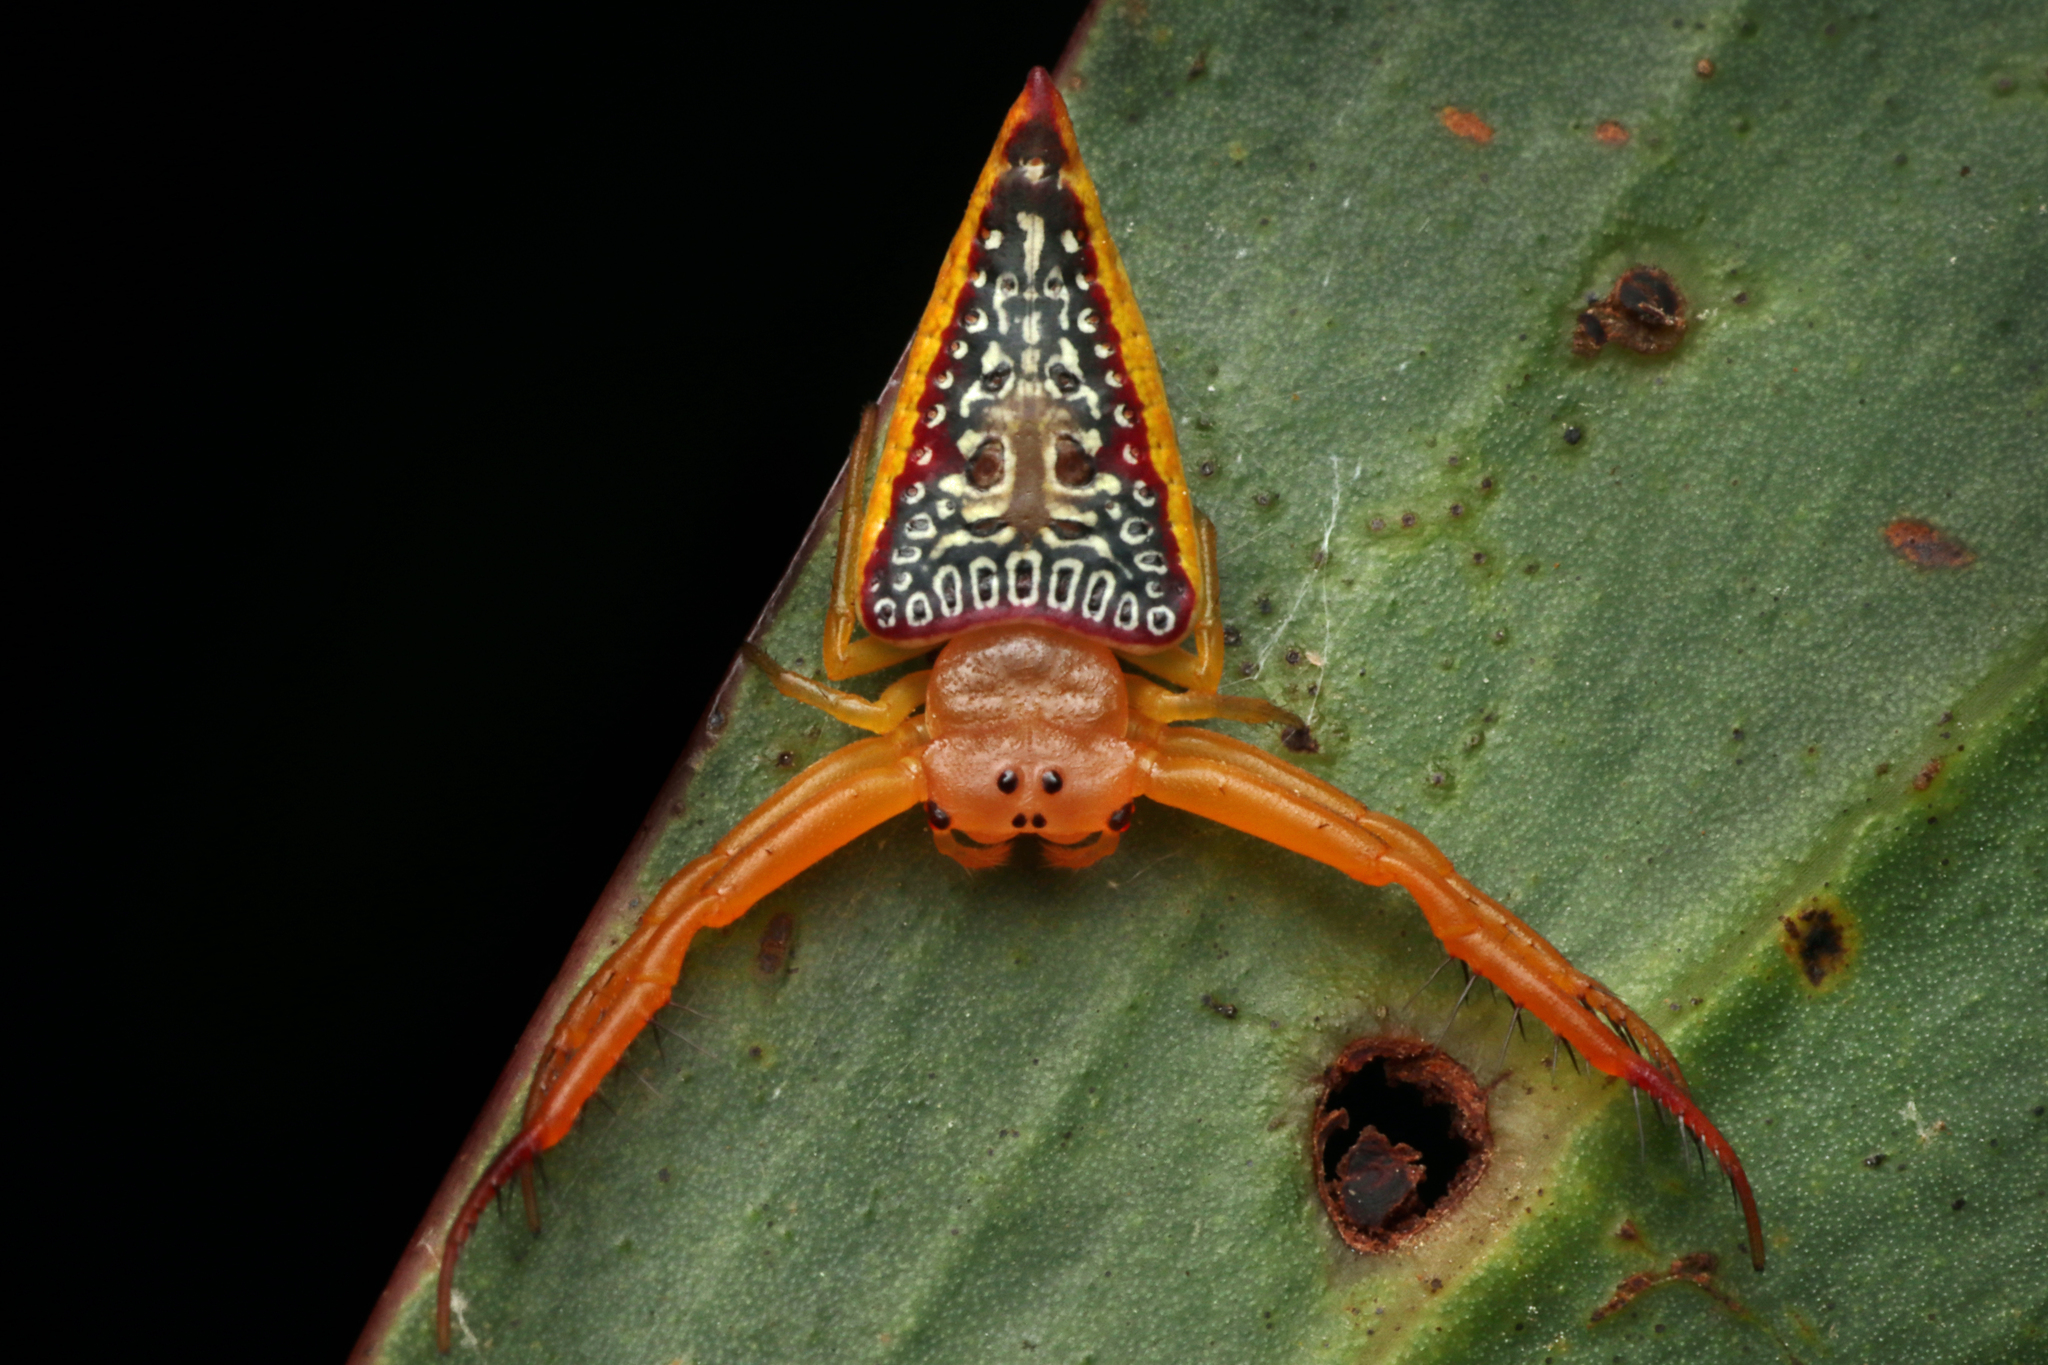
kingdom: Animalia
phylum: Arthropoda
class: Arachnida
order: Araneae
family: Arkyidae
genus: Arkys
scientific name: Arkys walckenaeri
